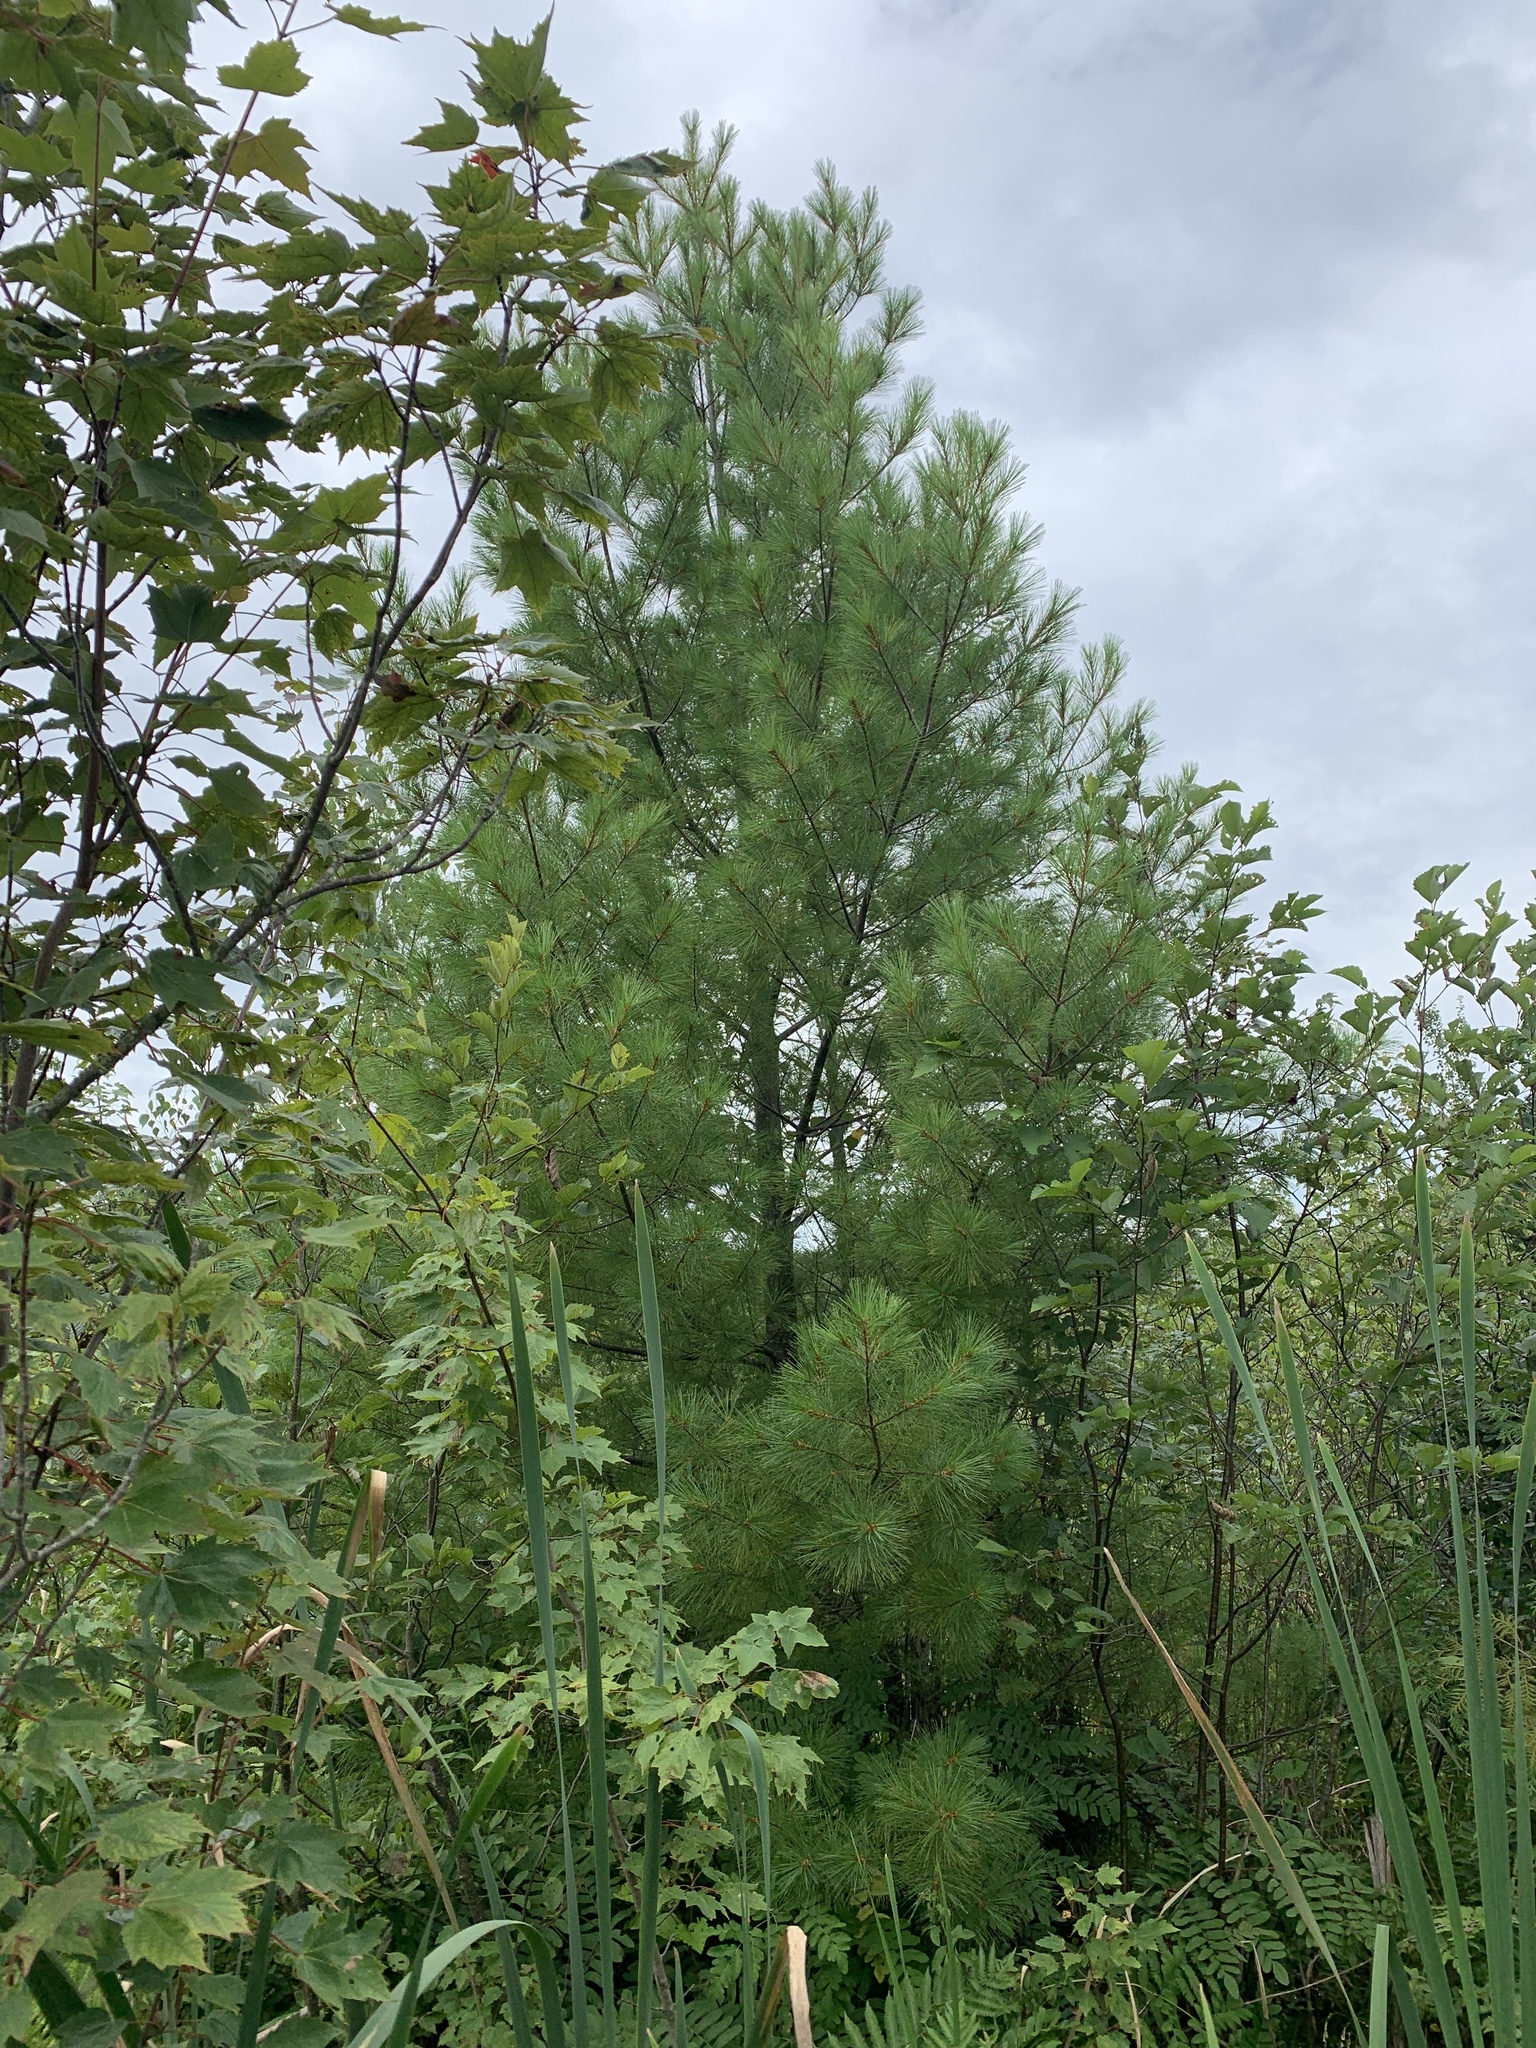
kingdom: Plantae
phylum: Tracheophyta
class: Pinopsida
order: Pinales
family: Pinaceae
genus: Pinus
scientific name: Pinus strobus
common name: Weymouth pine
